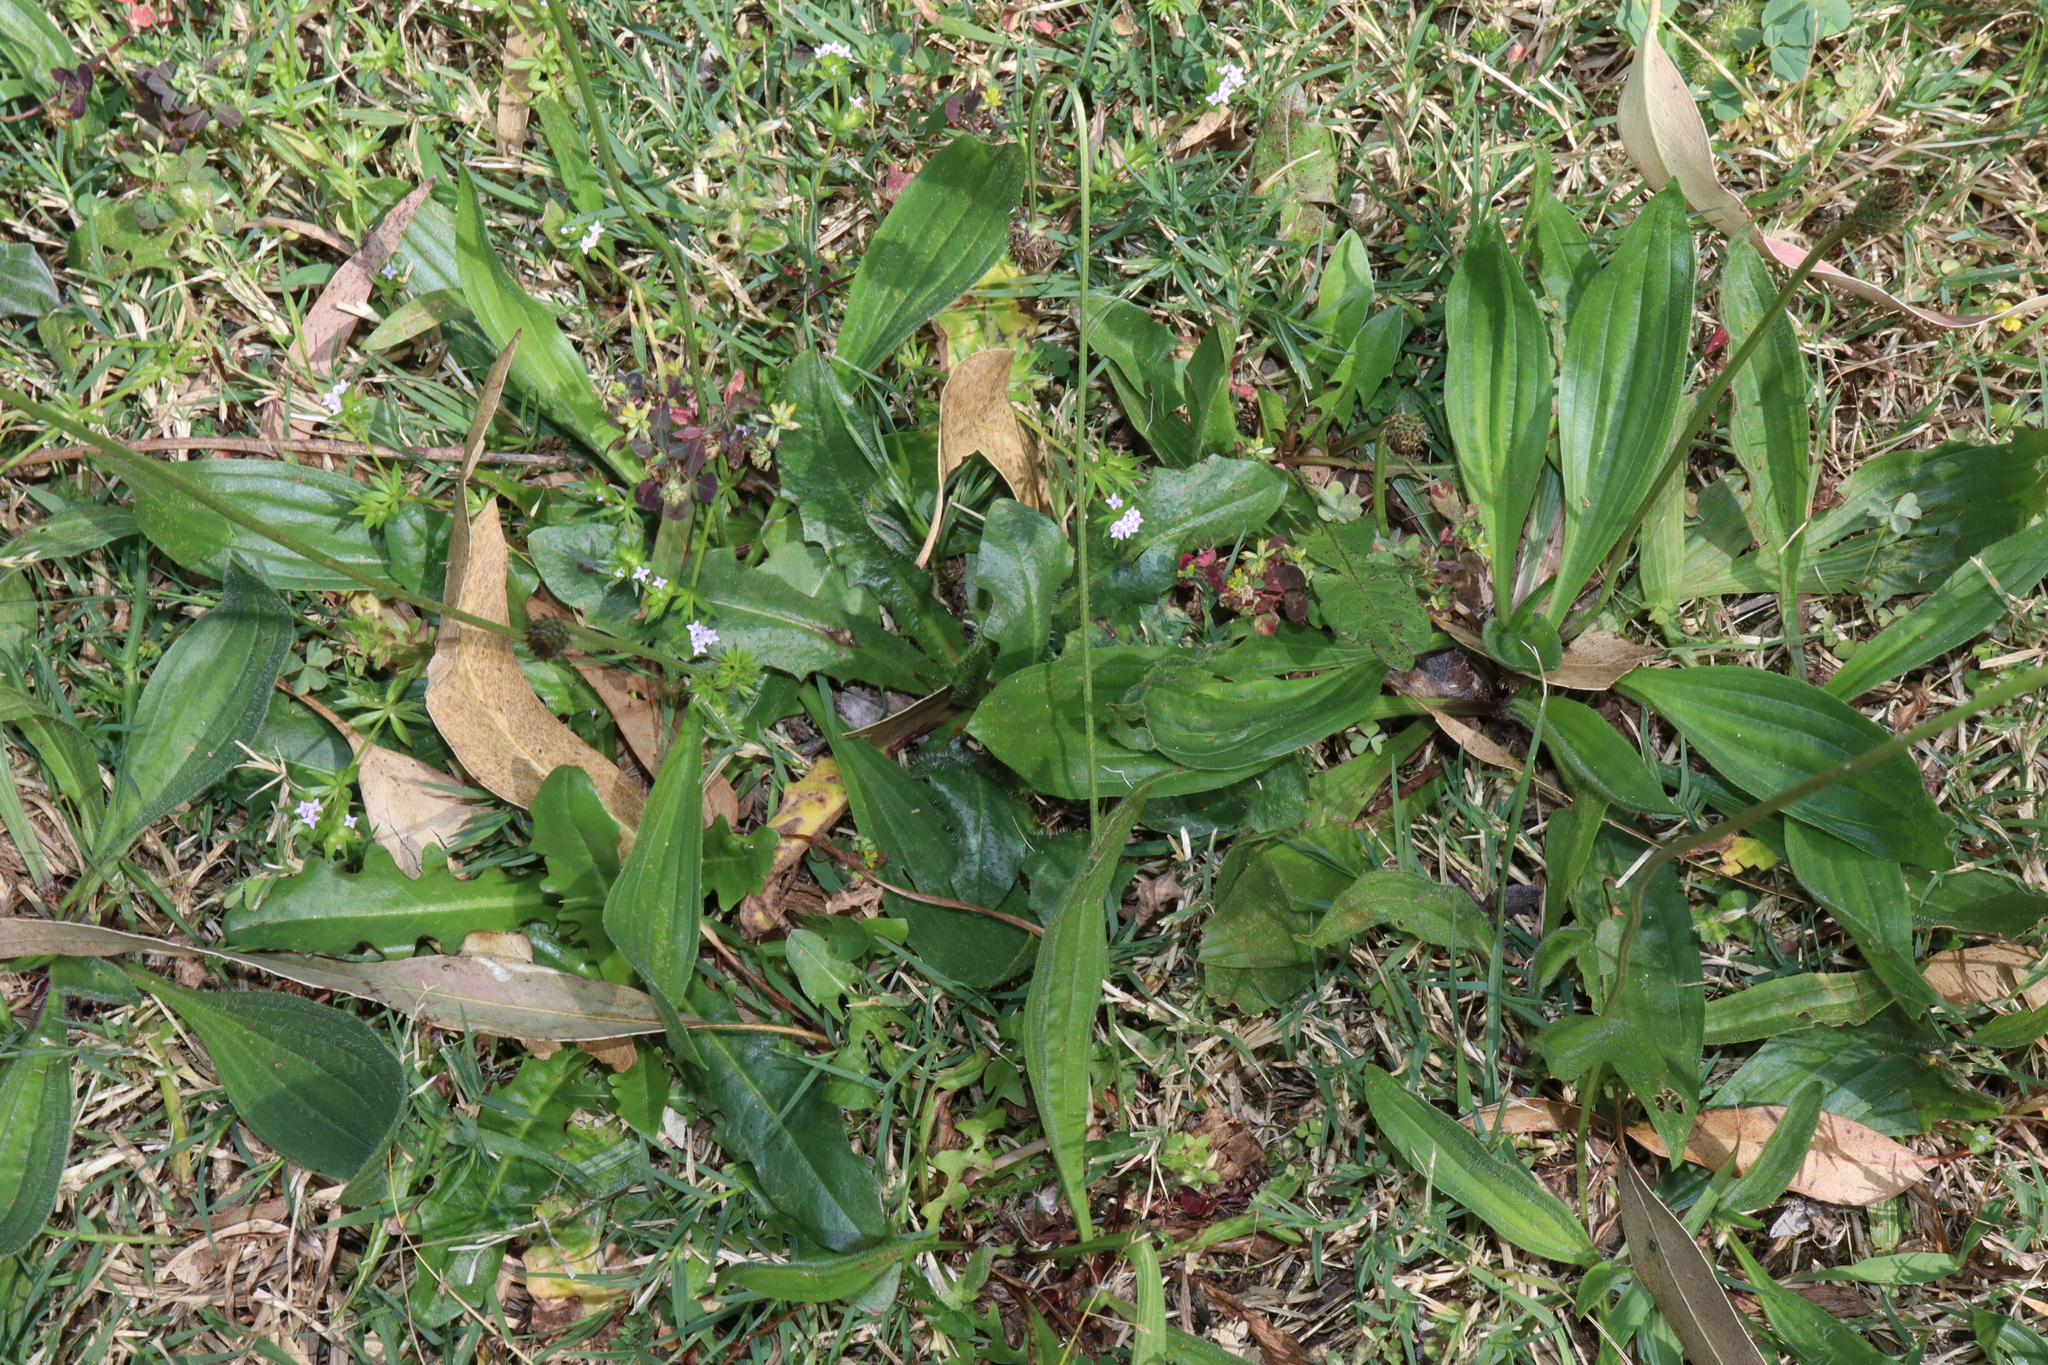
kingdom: Plantae
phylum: Tracheophyta
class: Magnoliopsida
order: Lamiales
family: Plantaginaceae
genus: Plantago
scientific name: Plantago lanceolata
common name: Ribwort plantain
